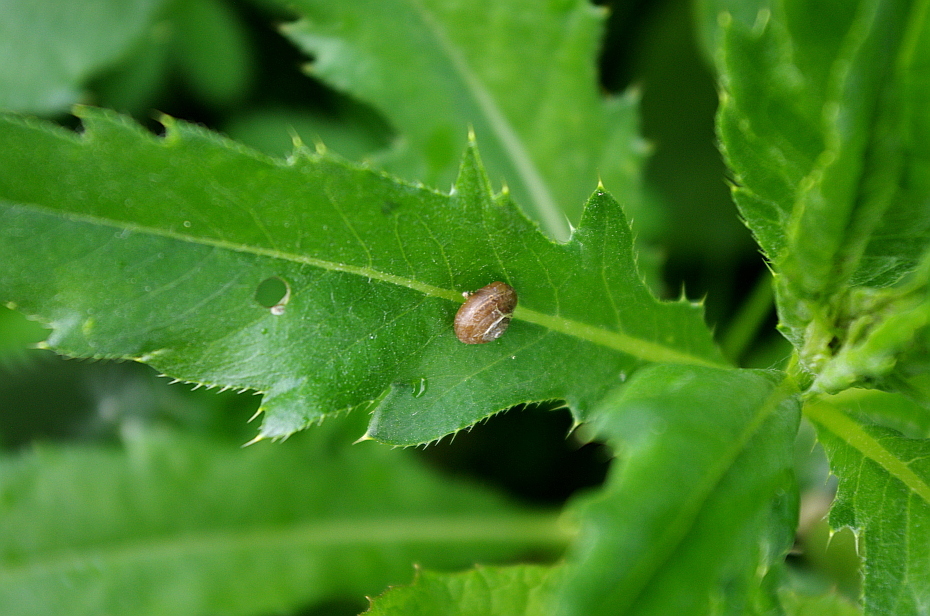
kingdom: Plantae
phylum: Tracheophyta
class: Magnoliopsida
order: Asterales
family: Asteraceae
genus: Cirsium
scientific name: Cirsium arvense
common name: Creeping thistle
